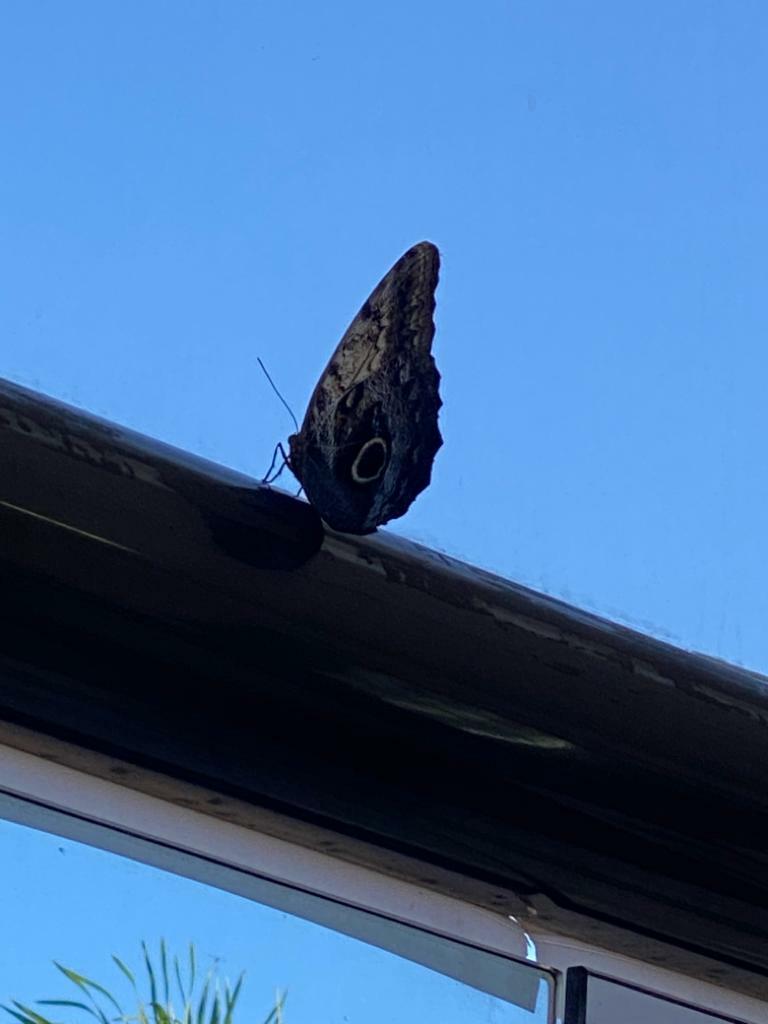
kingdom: Animalia
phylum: Arthropoda
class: Insecta
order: Lepidoptera
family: Nymphalidae
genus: Caligo
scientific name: Caligo telamonius
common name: Pale owl-butterfly
